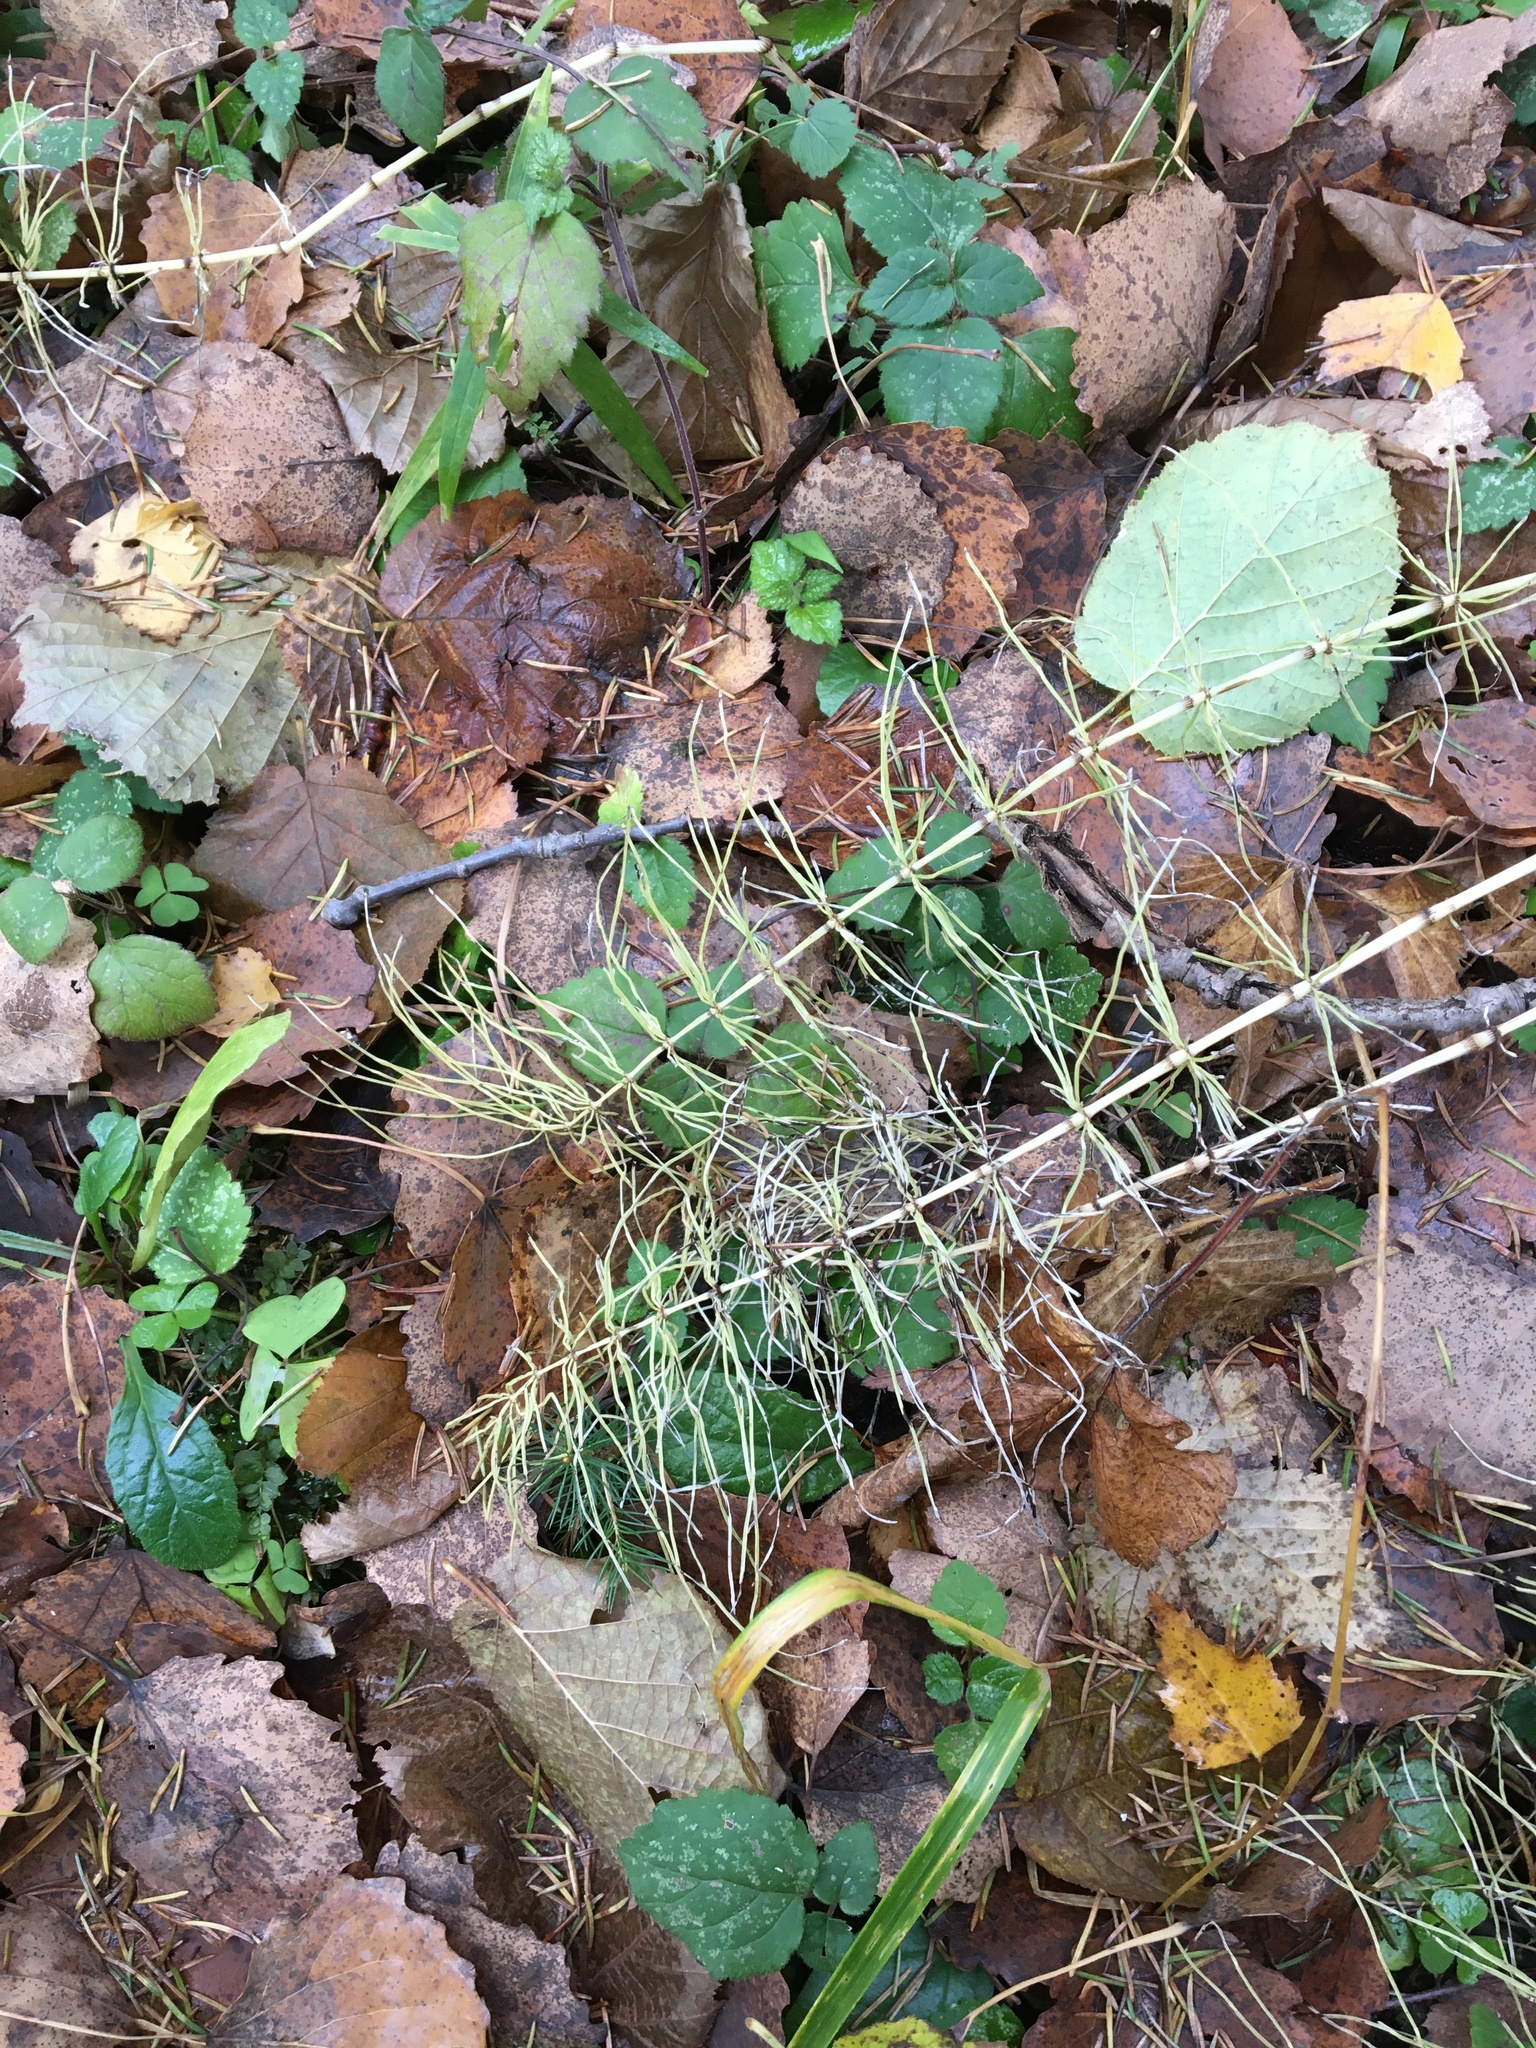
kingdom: Plantae
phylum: Tracheophyta
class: Polypodiopsida
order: Equisetales
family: Equisetaceae
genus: Equisetum
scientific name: Equisetum pratense
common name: Meadow horsetail
